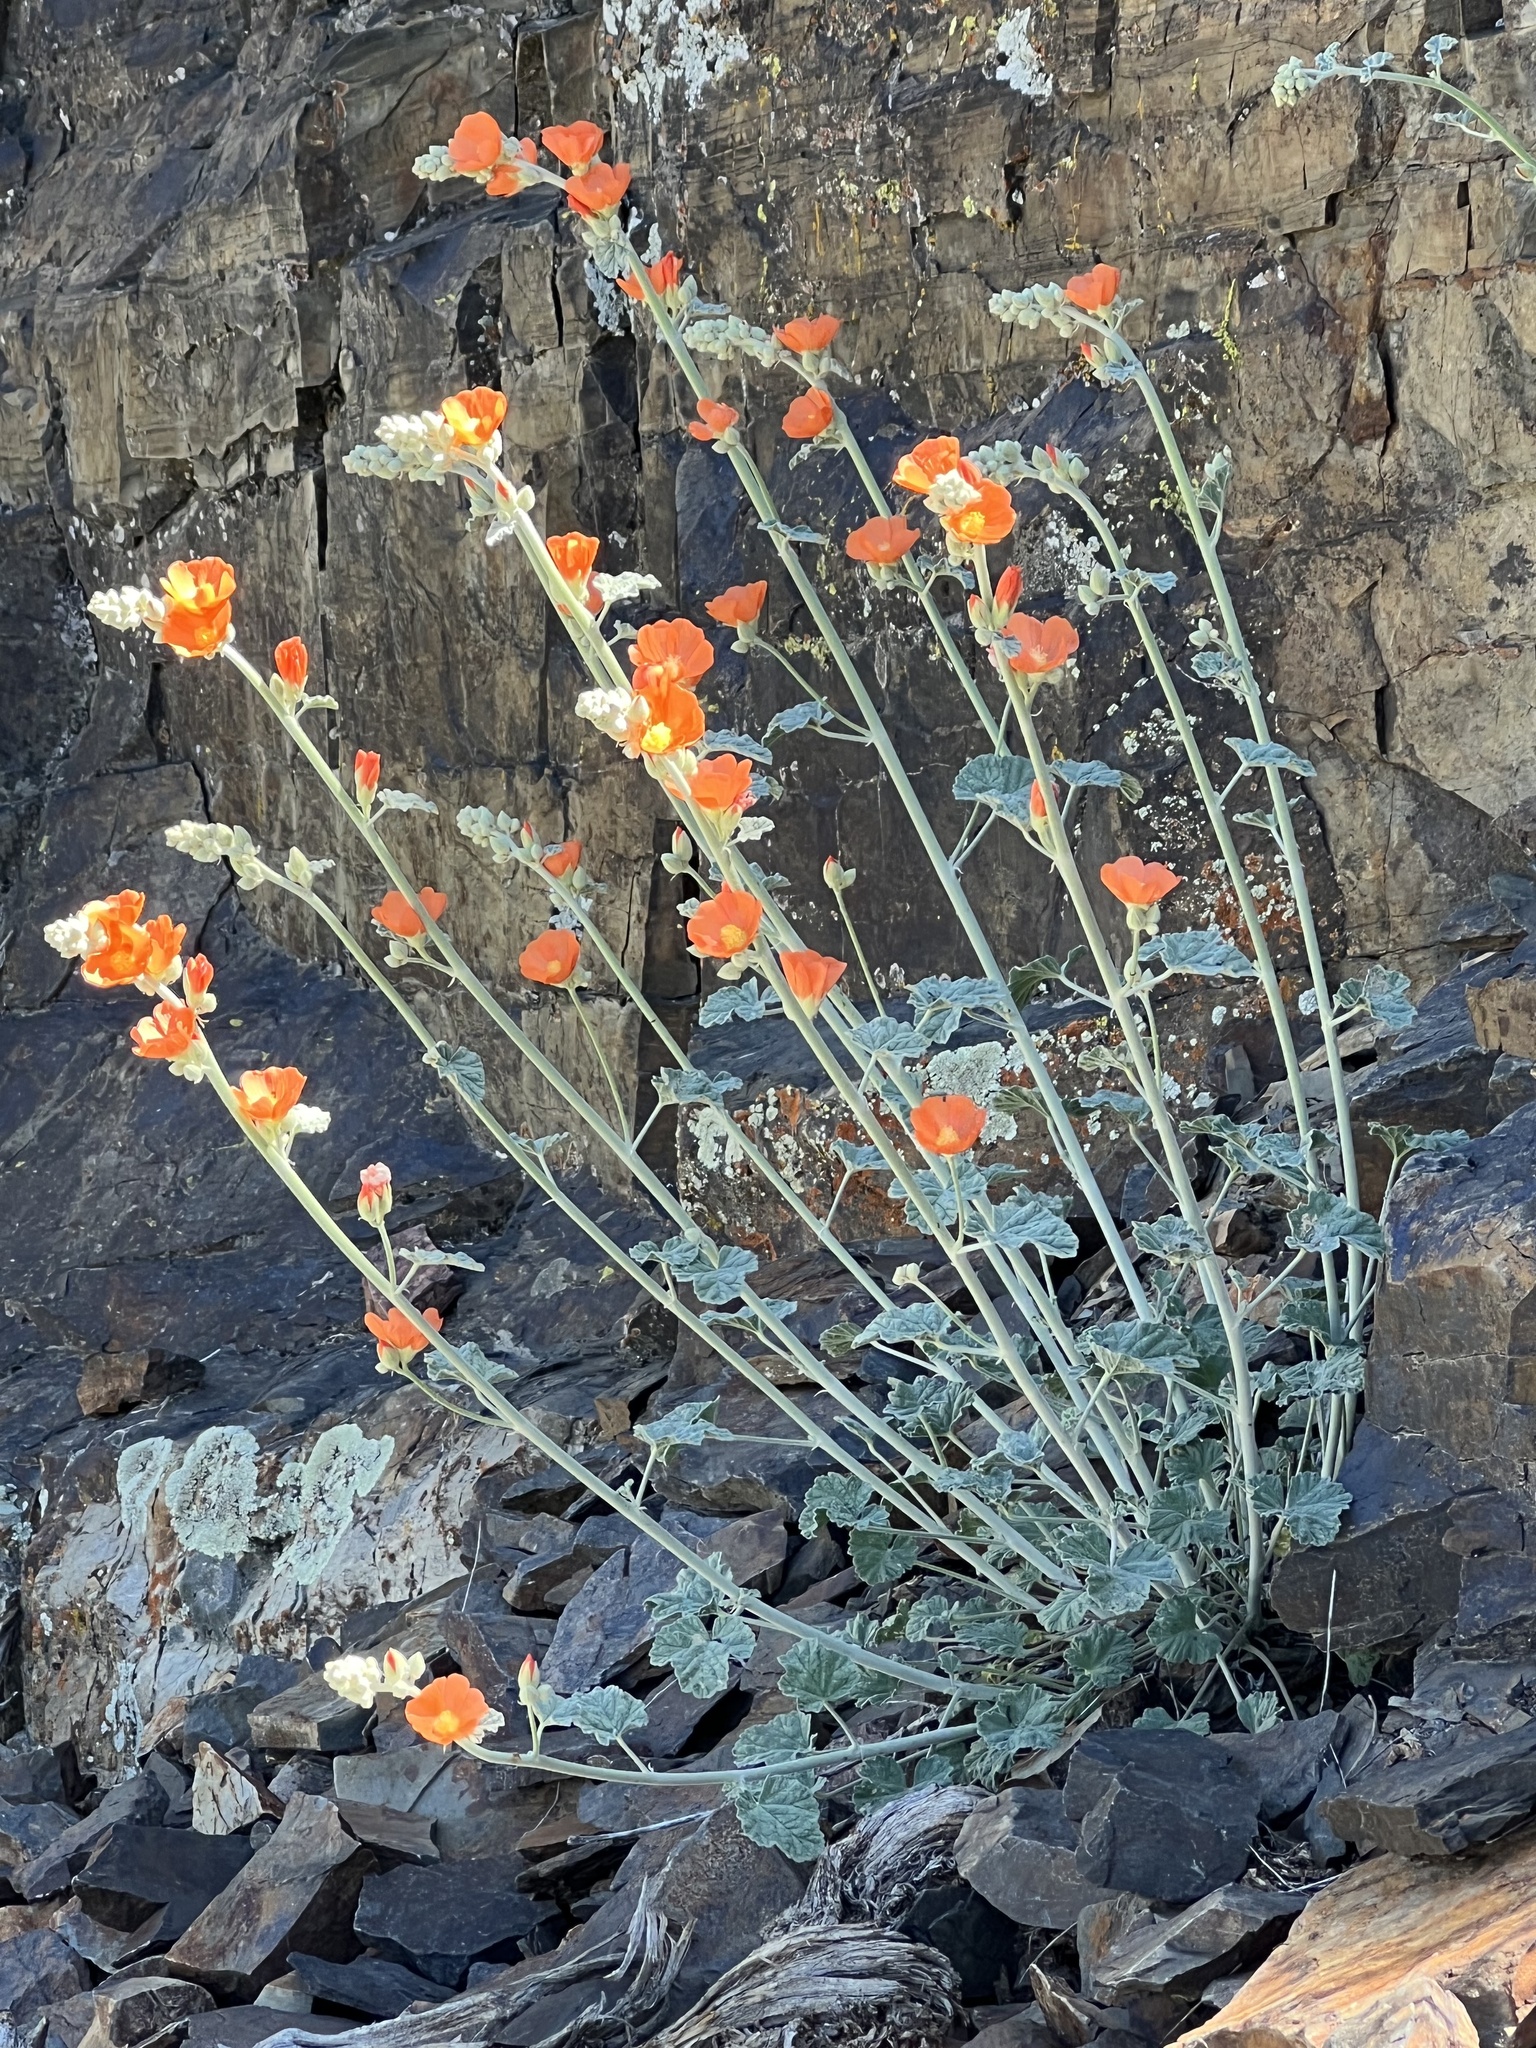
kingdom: Plantae
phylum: Tracheophyta
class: Magnoliopsida
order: Malvales
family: Malvaceae
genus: Sphaeralcea
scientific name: Sphaeralcea ambigua
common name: Apricot globe-mallow
